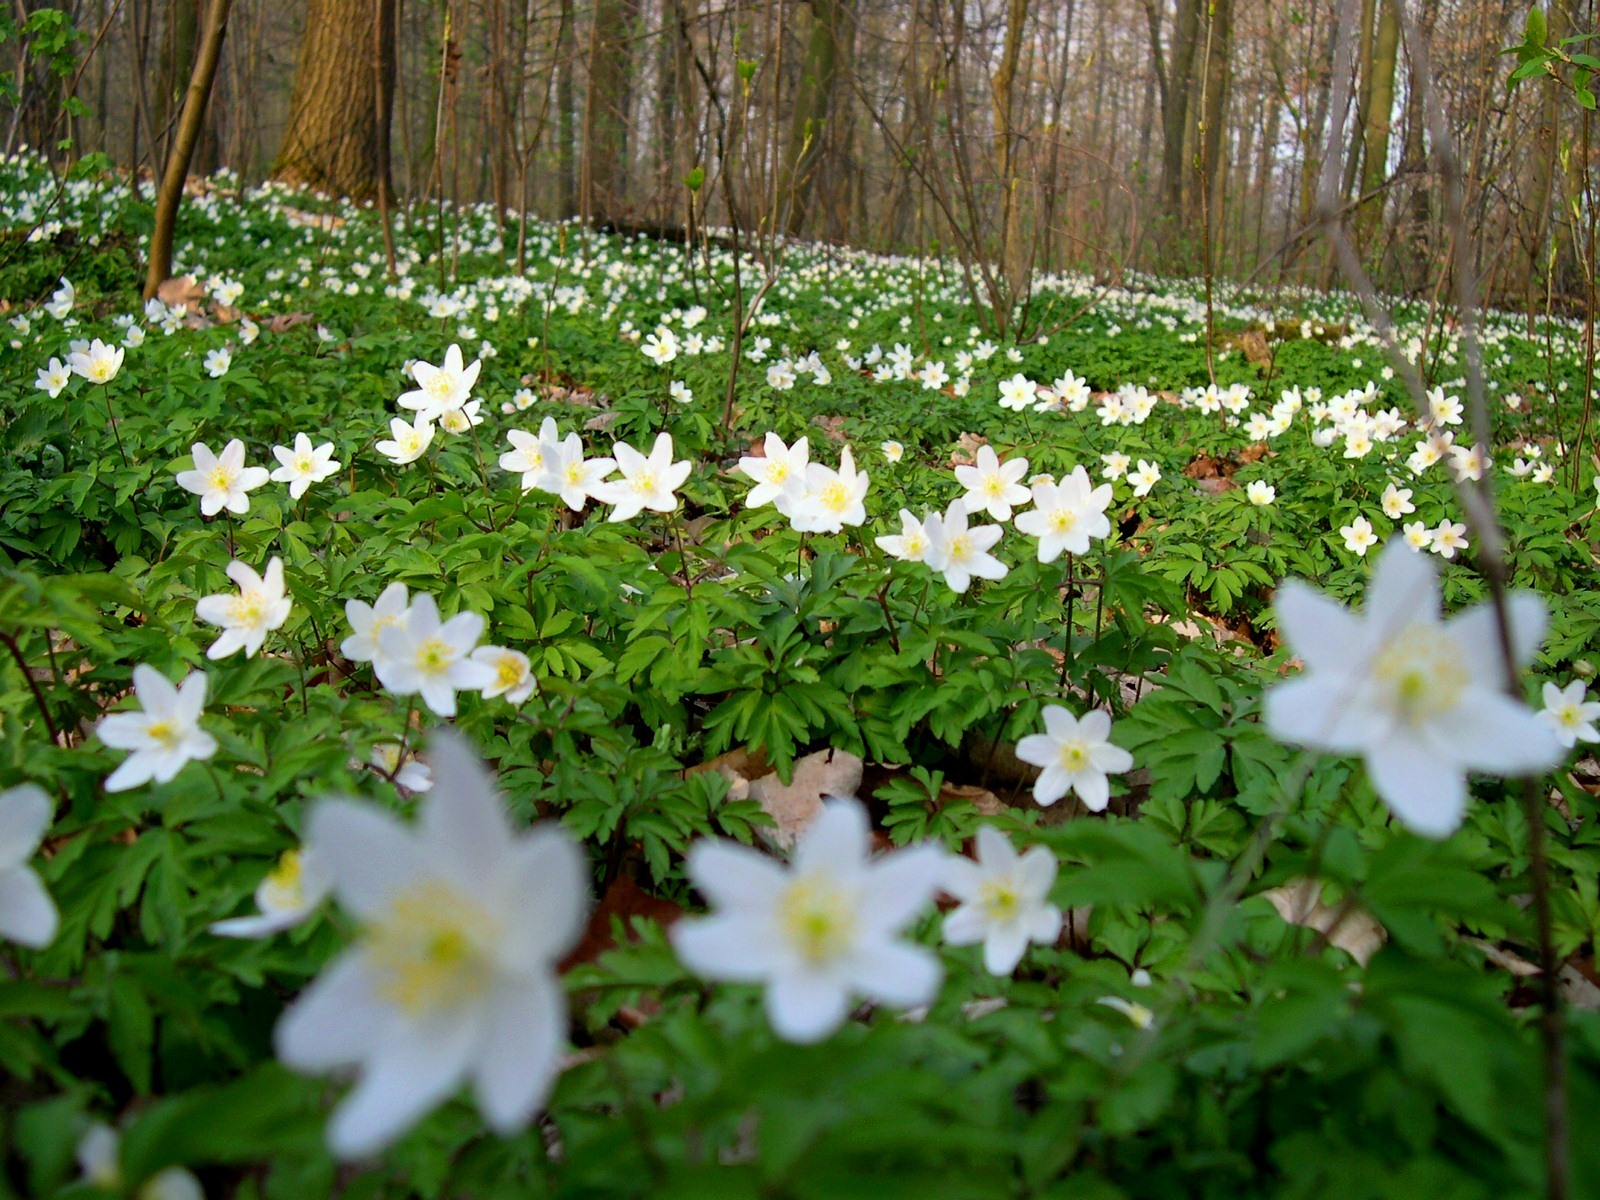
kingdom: Plantae
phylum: Tracheophyta
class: Magnoliopsida
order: Ranunculales
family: Ranunculaceae
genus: Anemone
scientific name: Anemone nemorosa
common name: Wood anemone
